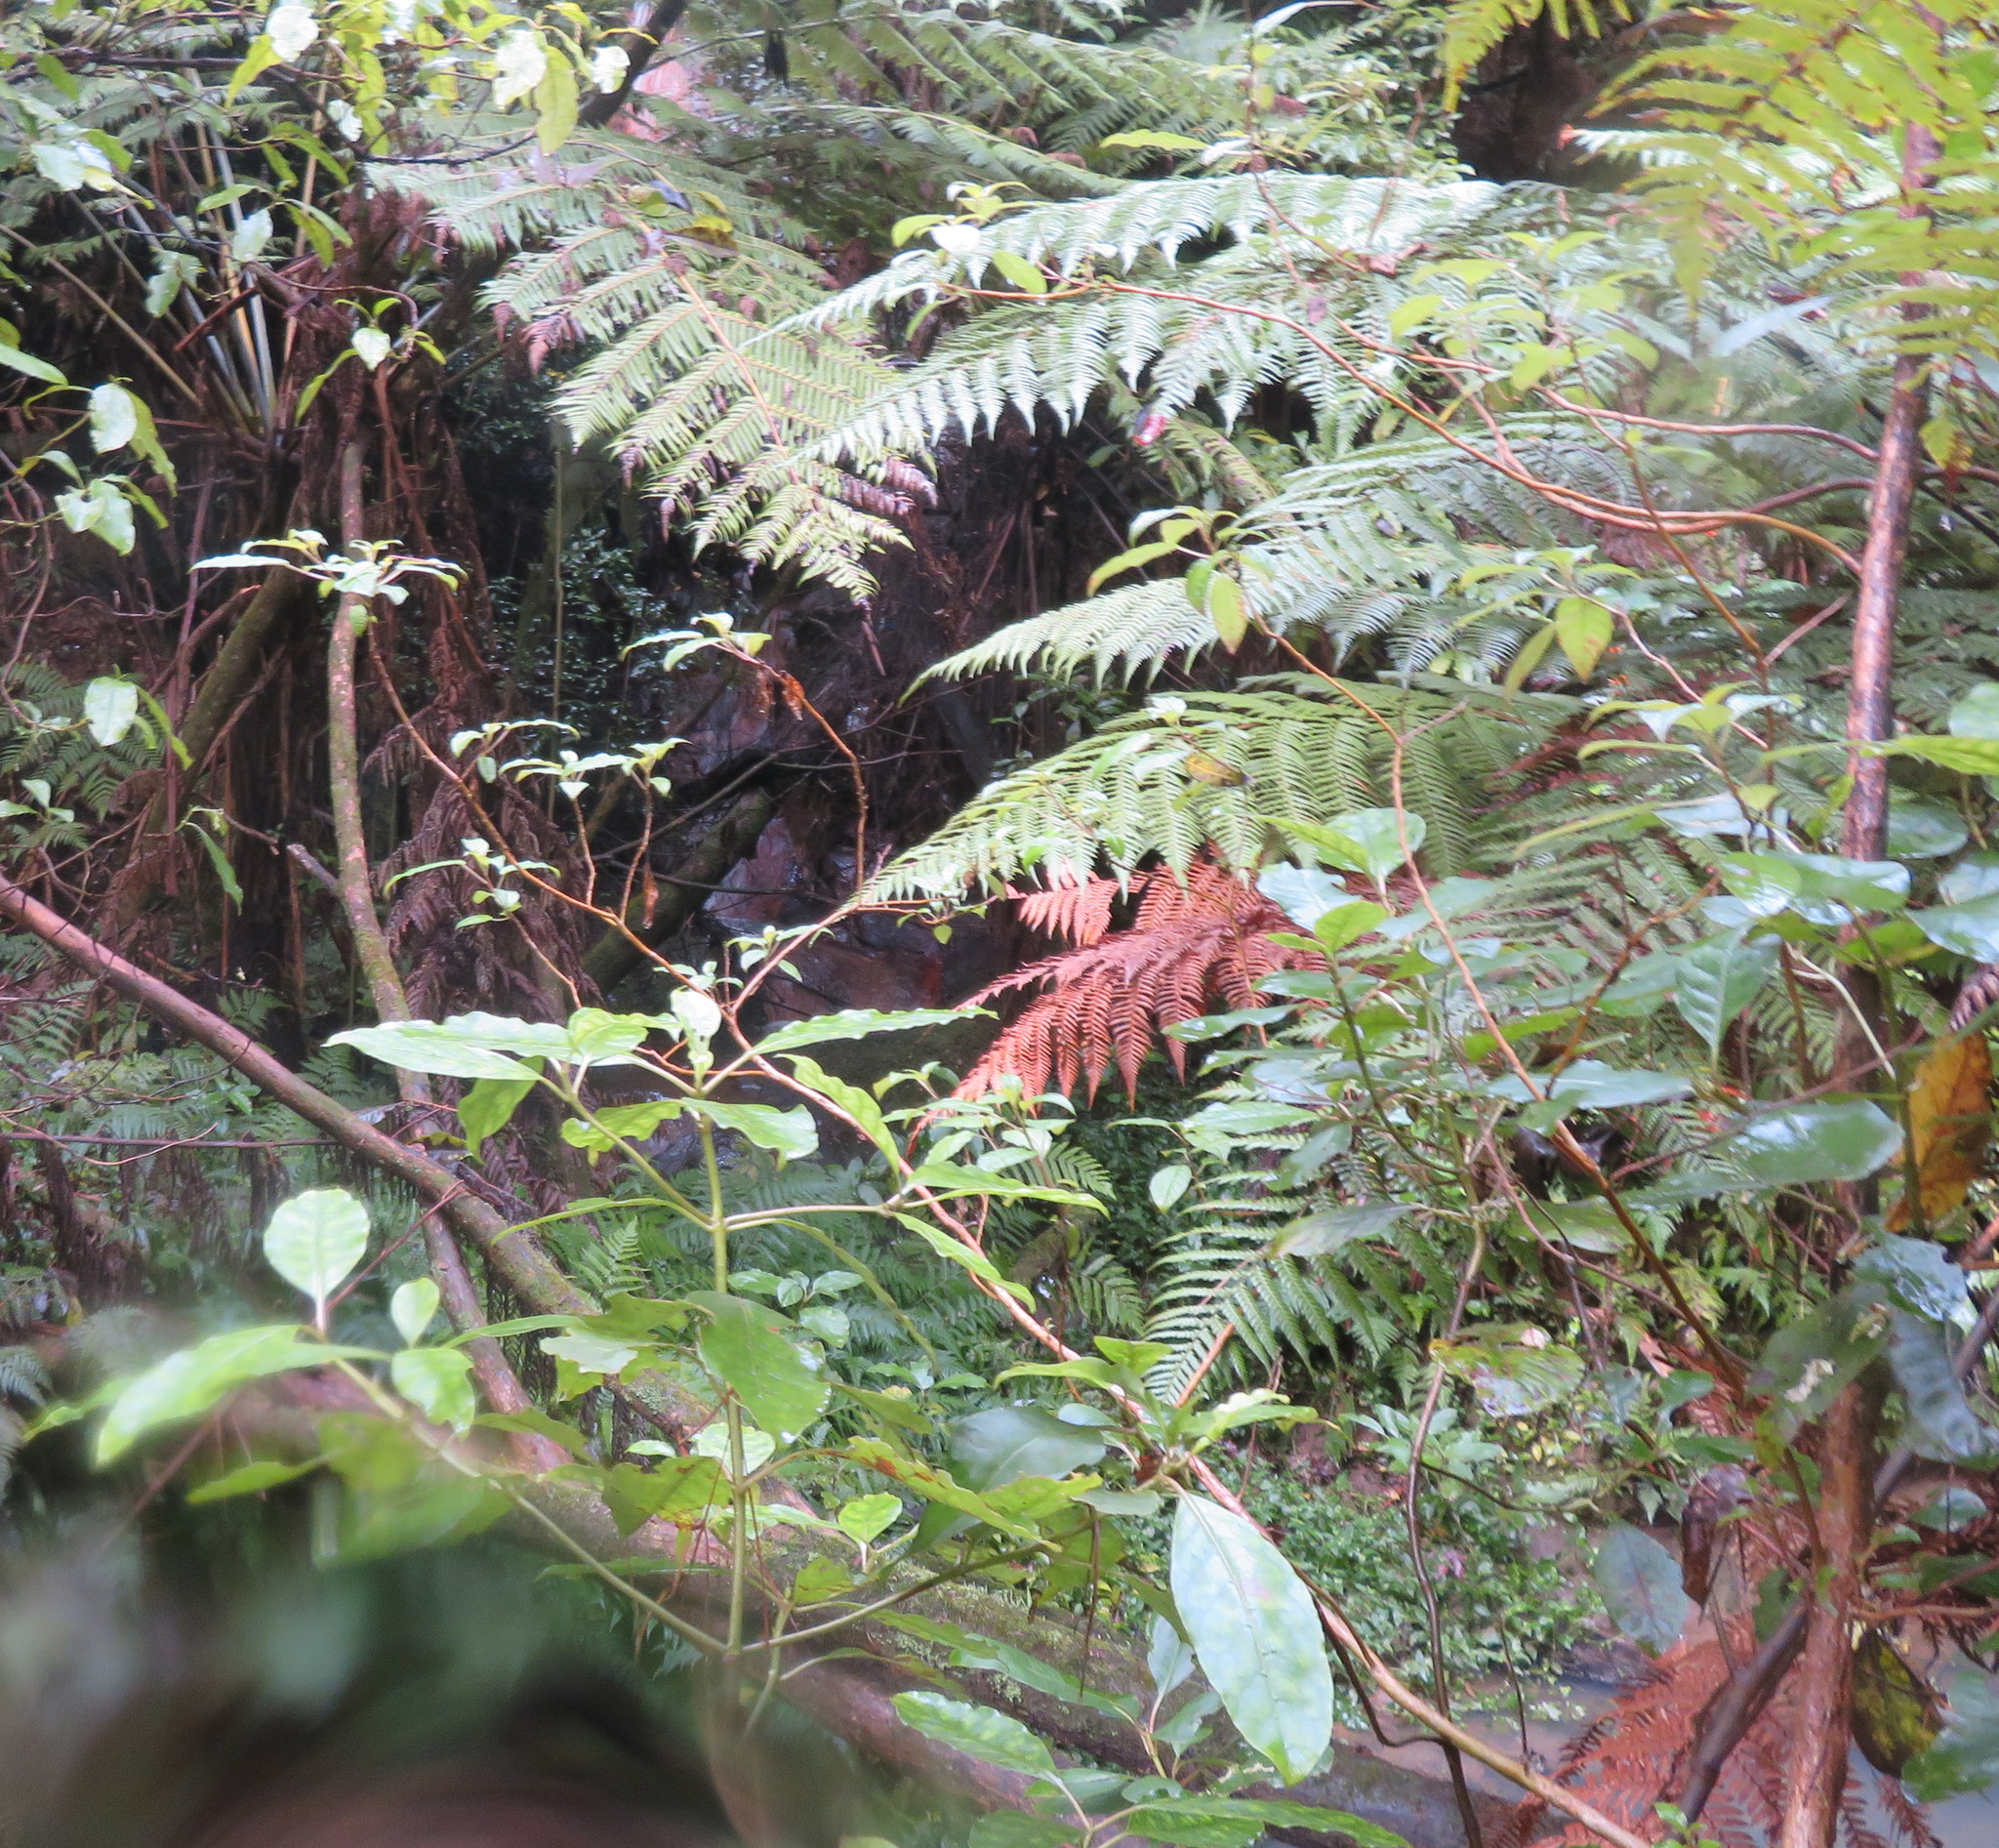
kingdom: Plantae
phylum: Tracheophyta
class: Magnoliopsida
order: Myrtales
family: Onagraceae
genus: Fuchsia
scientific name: Fuchsia excorticata
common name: Tree fuchsia
